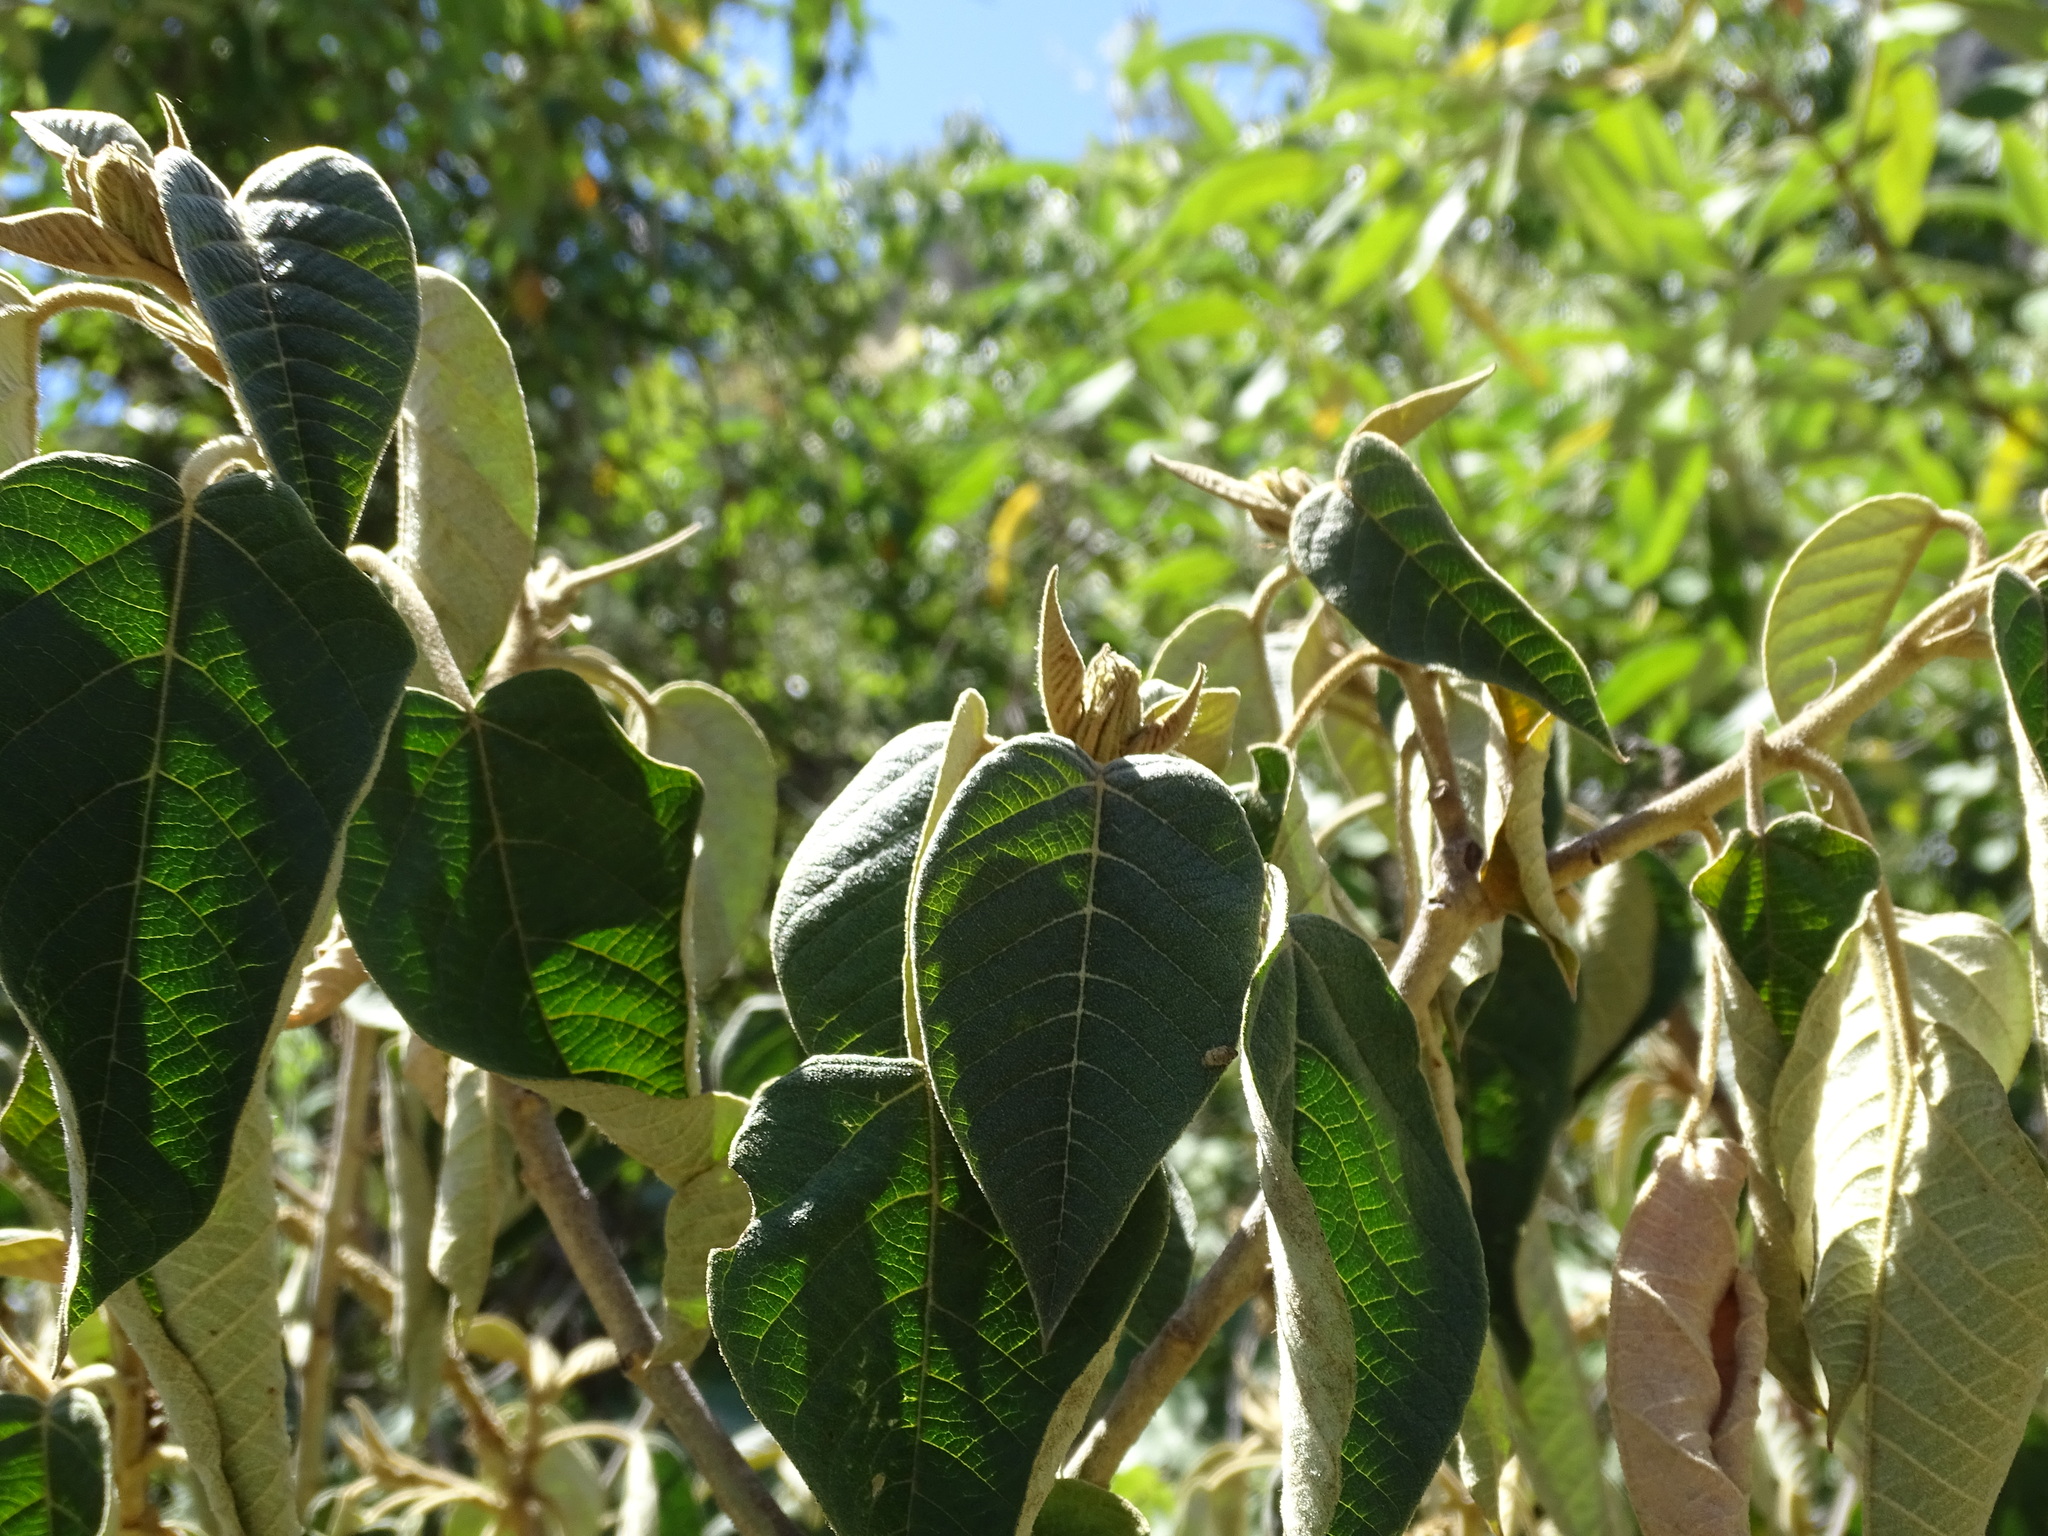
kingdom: Plantae
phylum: Tracheophyta
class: Magnoliopsida
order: Malpighiales
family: Euphorbiaceae
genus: Croton
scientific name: Croton draco
